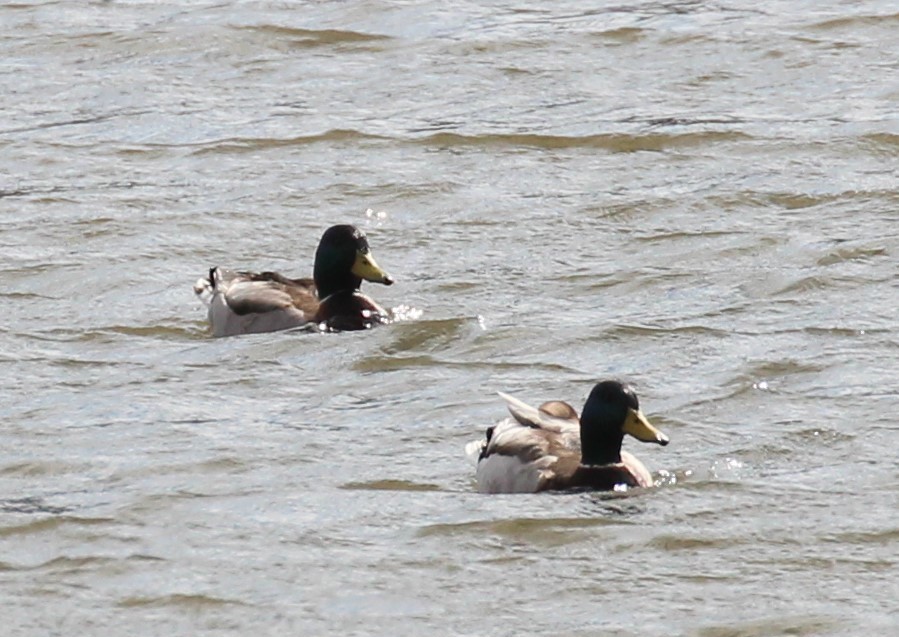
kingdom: Animalia
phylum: Chordata
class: Aves
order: Anseriformes
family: Anatidae
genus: Anas
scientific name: Anas platyrhynchos
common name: Mallard
